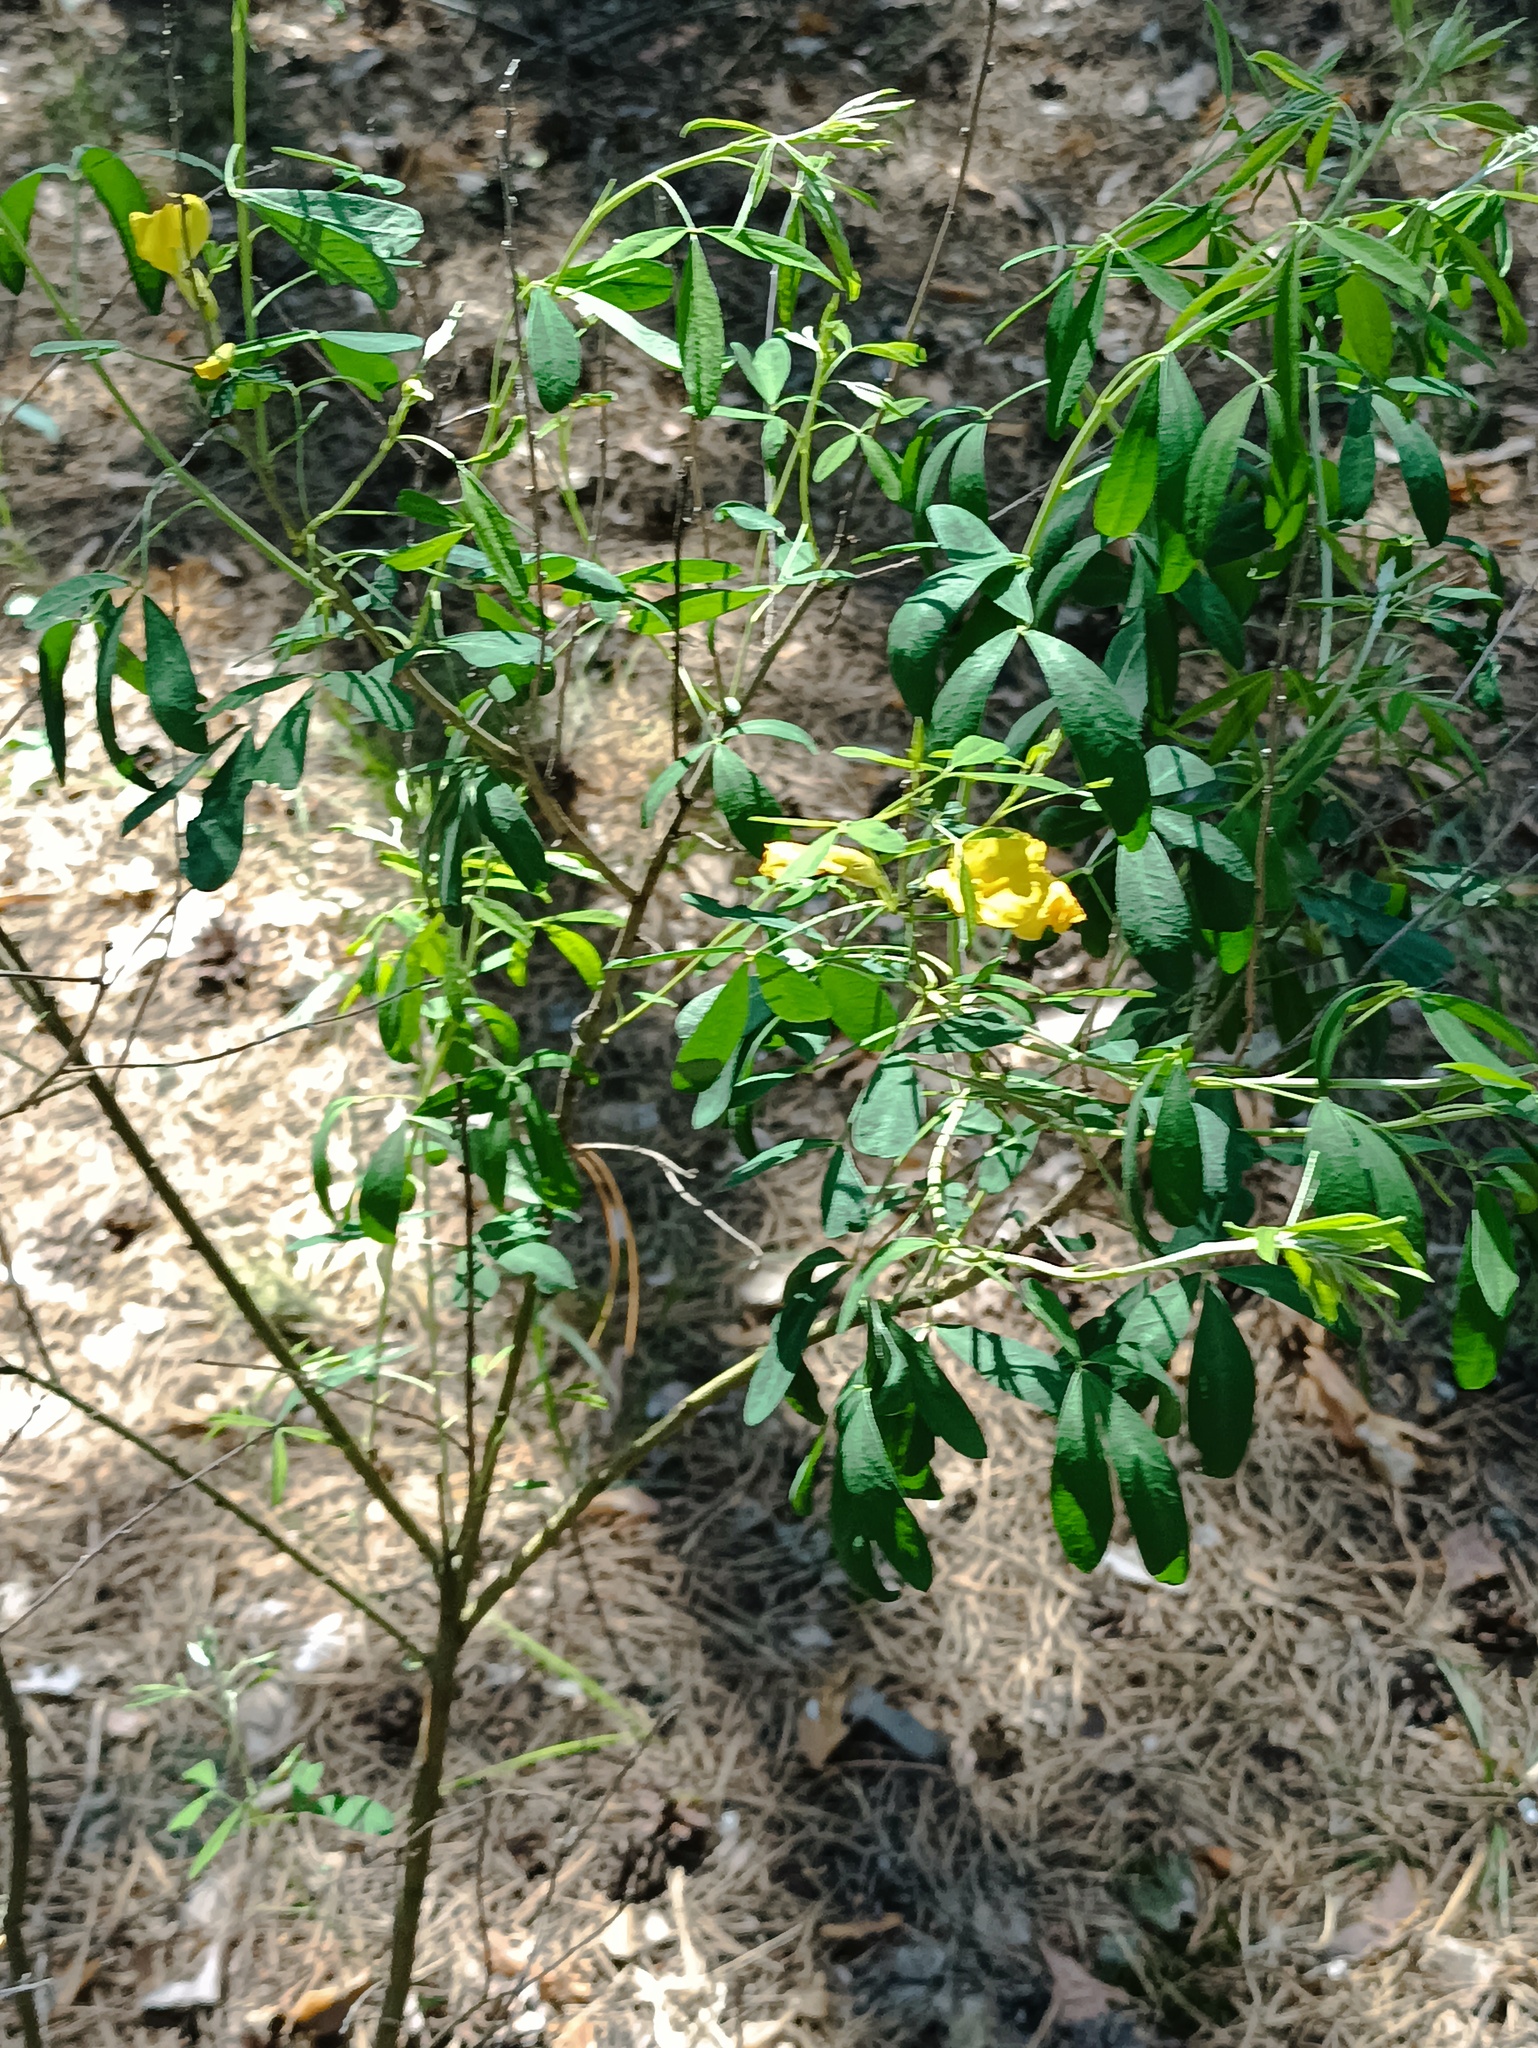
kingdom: Plantae
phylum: Tracheophyta
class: Magnoliopsida
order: Fabales
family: Fabaceae
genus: Chamaecytisus
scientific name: Chamaecytisus ruthenicus
